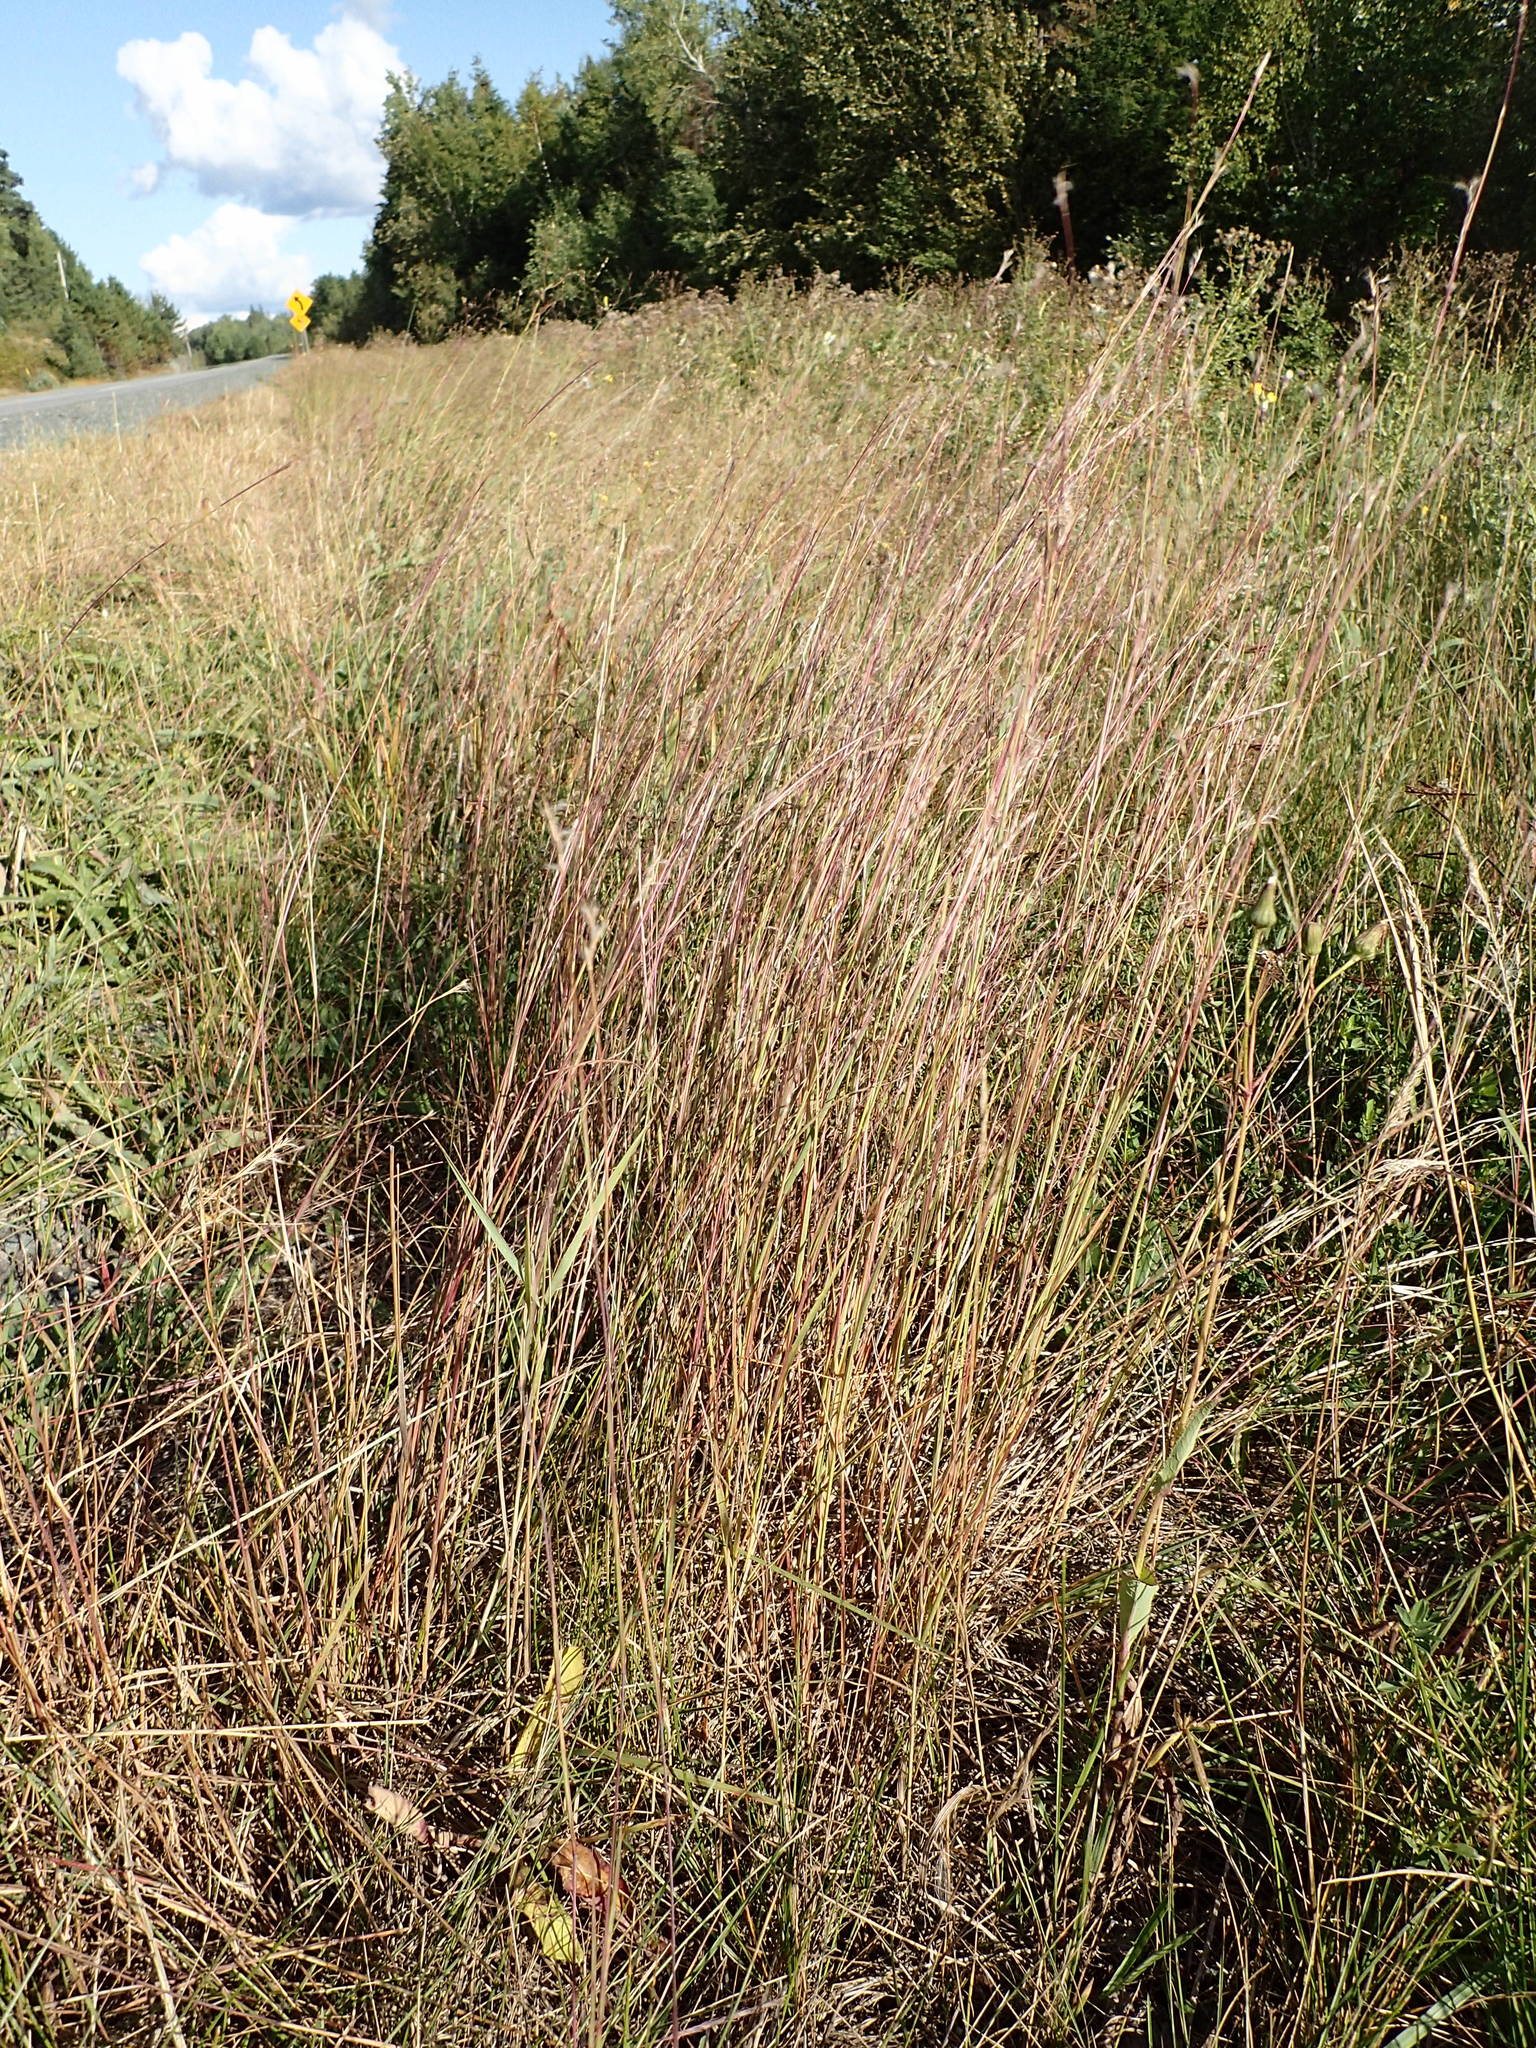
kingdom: Plantae
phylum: Tracheophyta
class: Liliopsida
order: Poales
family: Poaceae
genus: Schizachyrium
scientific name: Schizachyrium scoparium
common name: Little bluestem
